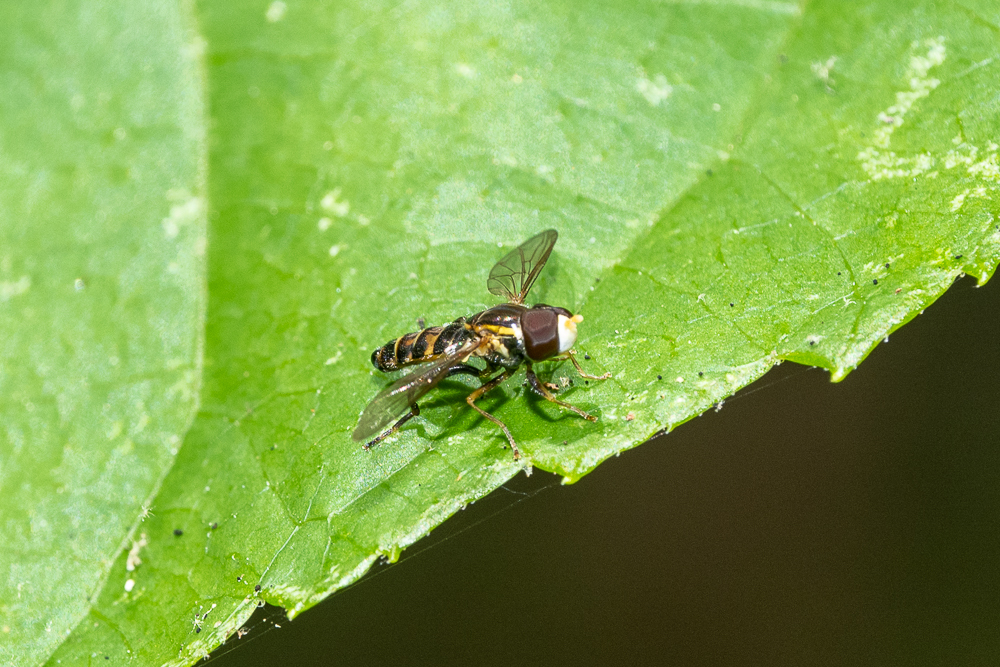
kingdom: Animalia
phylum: Arthropoda
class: Insecta
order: Diptera
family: Syrphidae
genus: Toxomerus
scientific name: Toxomerus occidentalis
